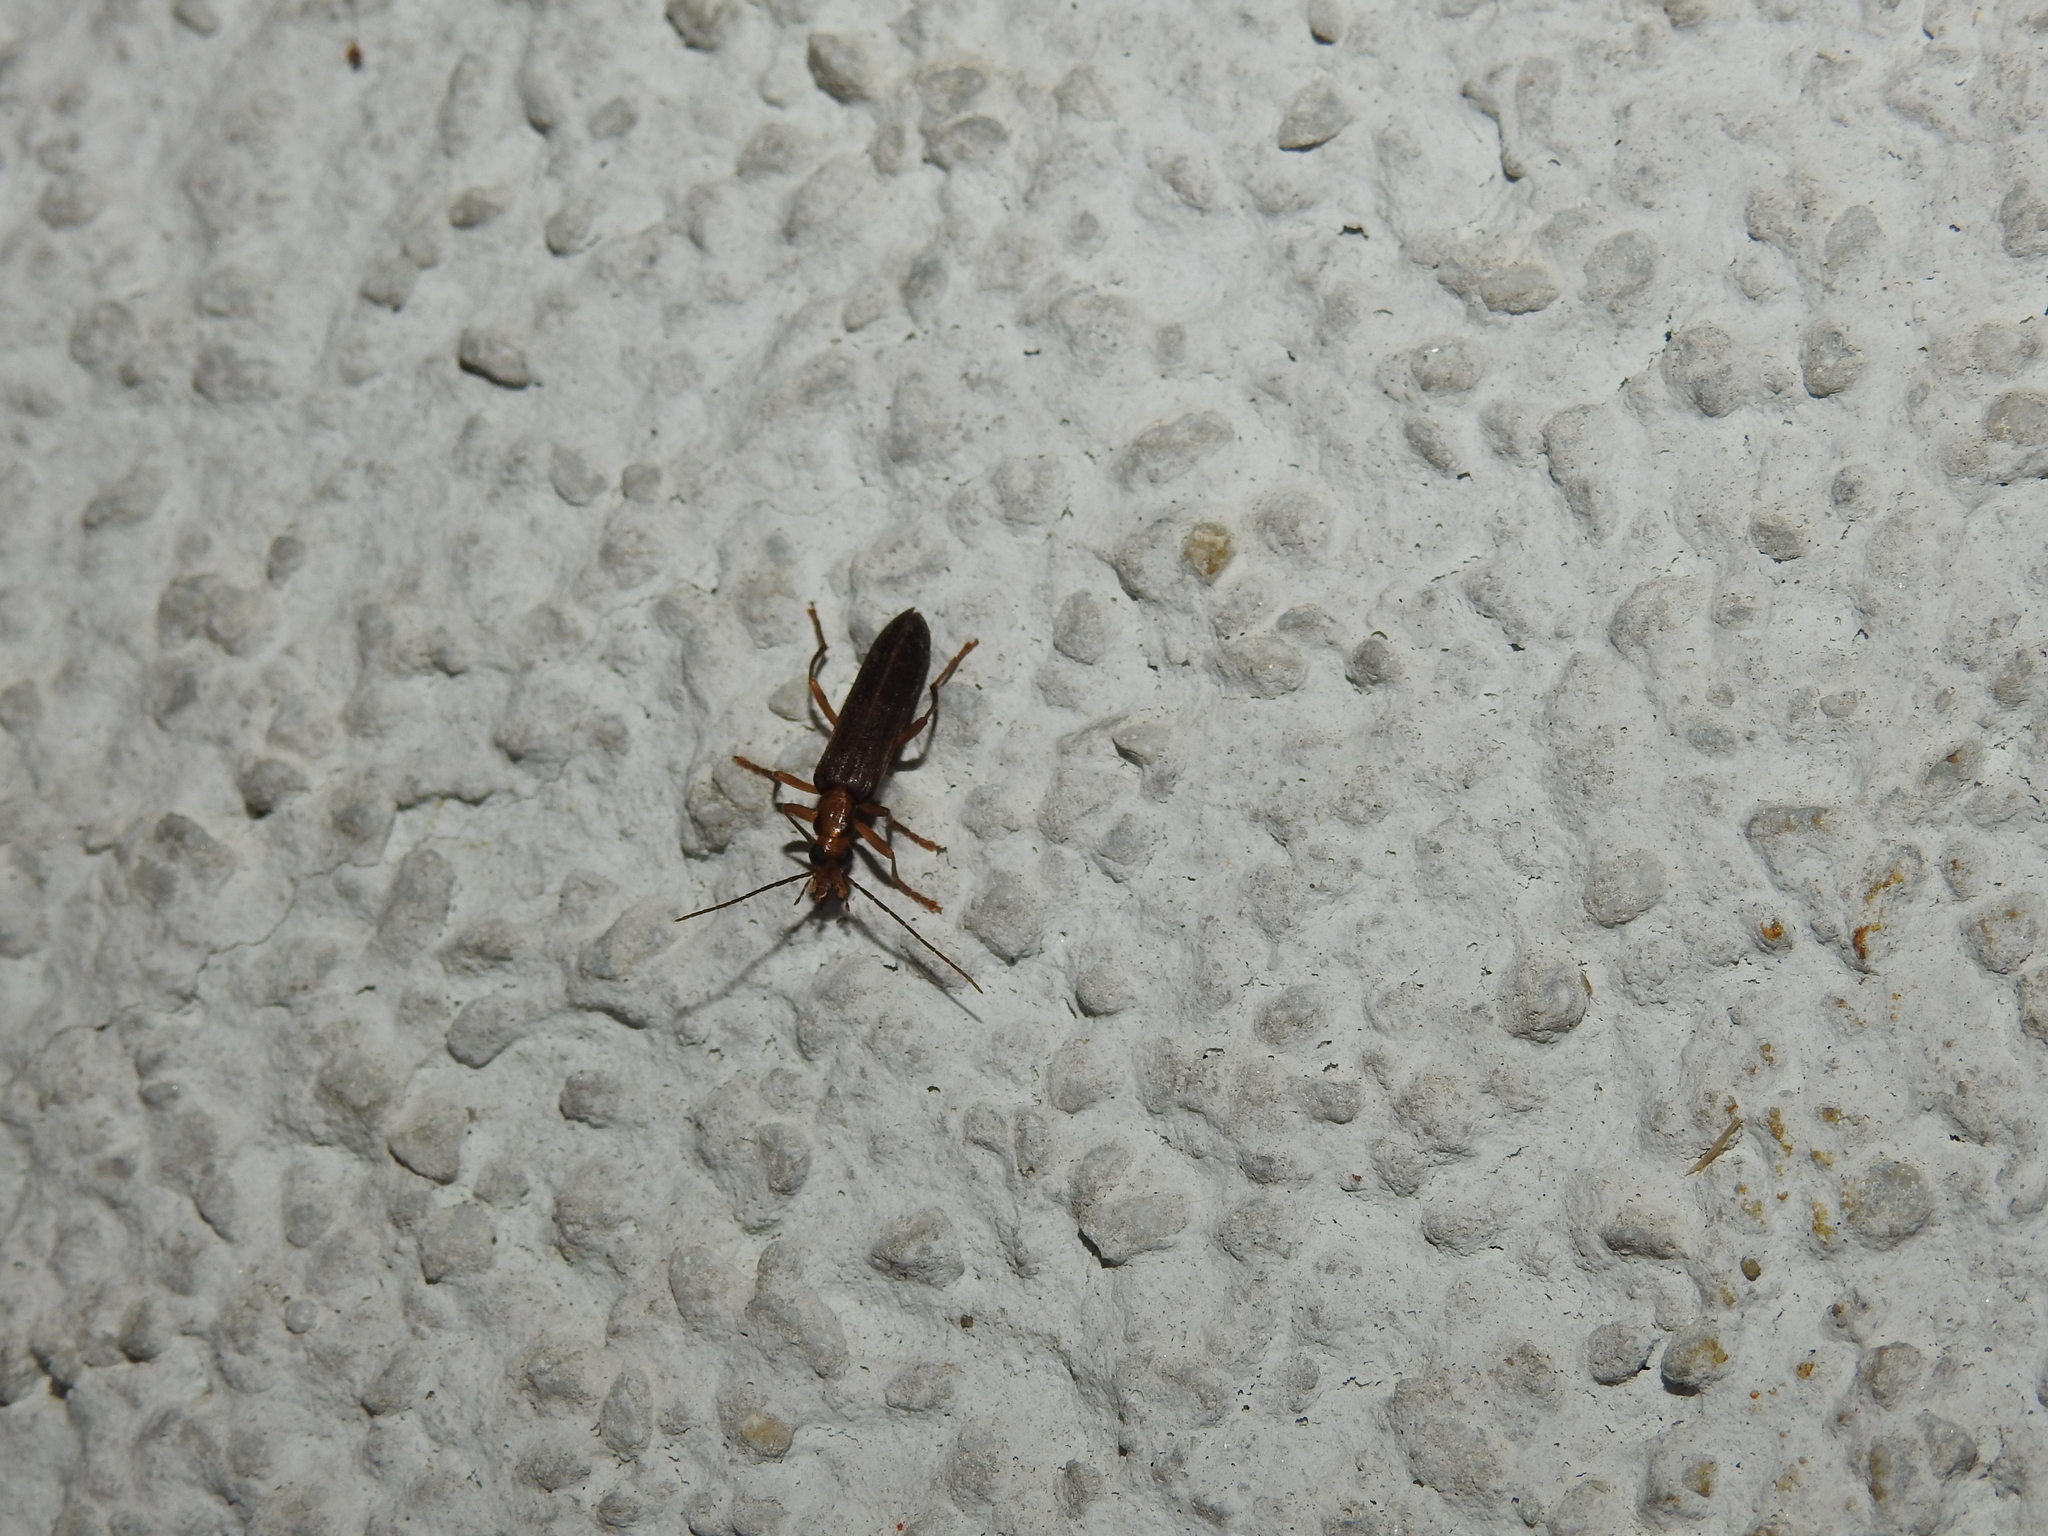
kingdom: Animalia
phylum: Arthropoda
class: Insecta
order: Coleoptera
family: Oedemeridae
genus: Nacerdes
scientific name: Nacerdes carniolica
